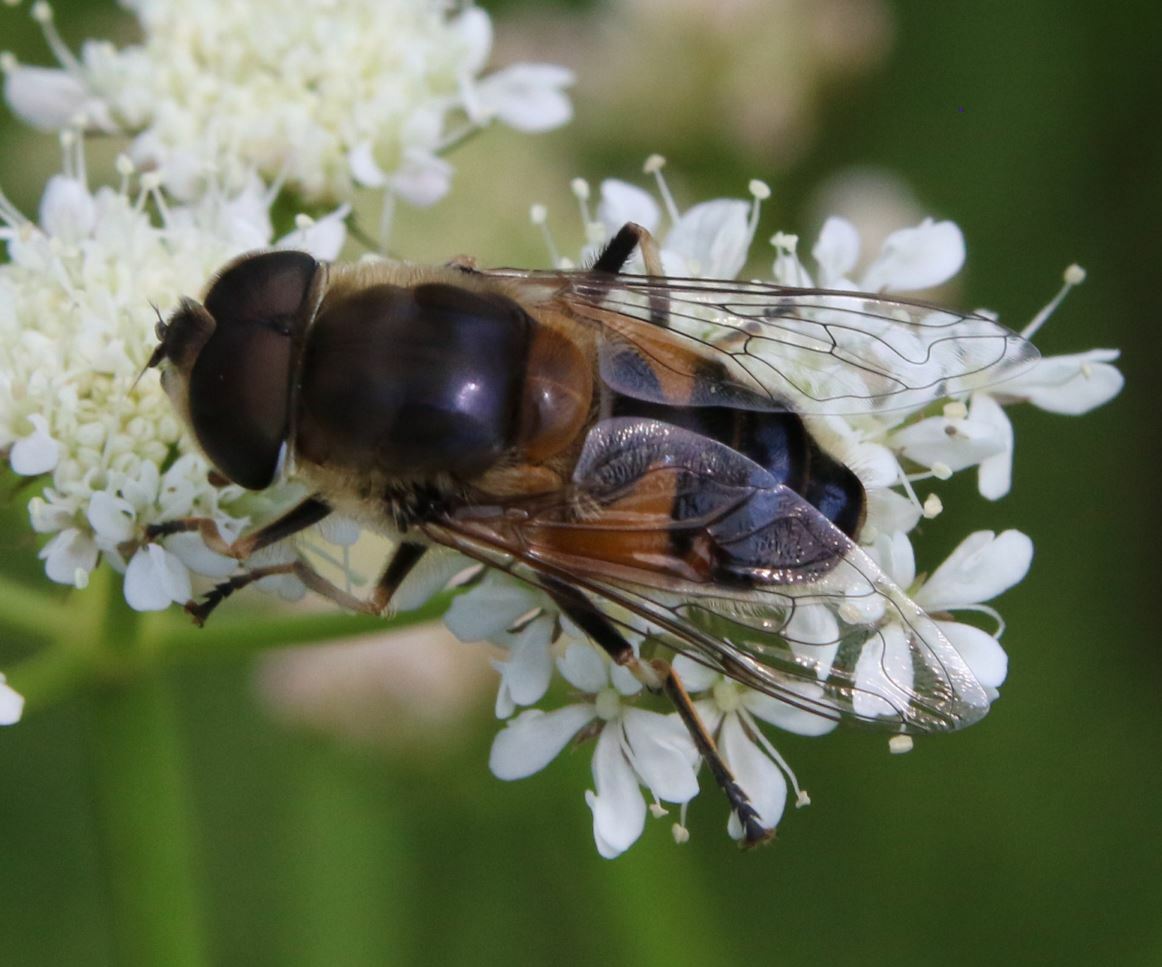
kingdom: Animalia
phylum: Arthropoda
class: Insecta
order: Diptera
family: Syrphidae
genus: Eristalis
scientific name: Eristalis pertinax
